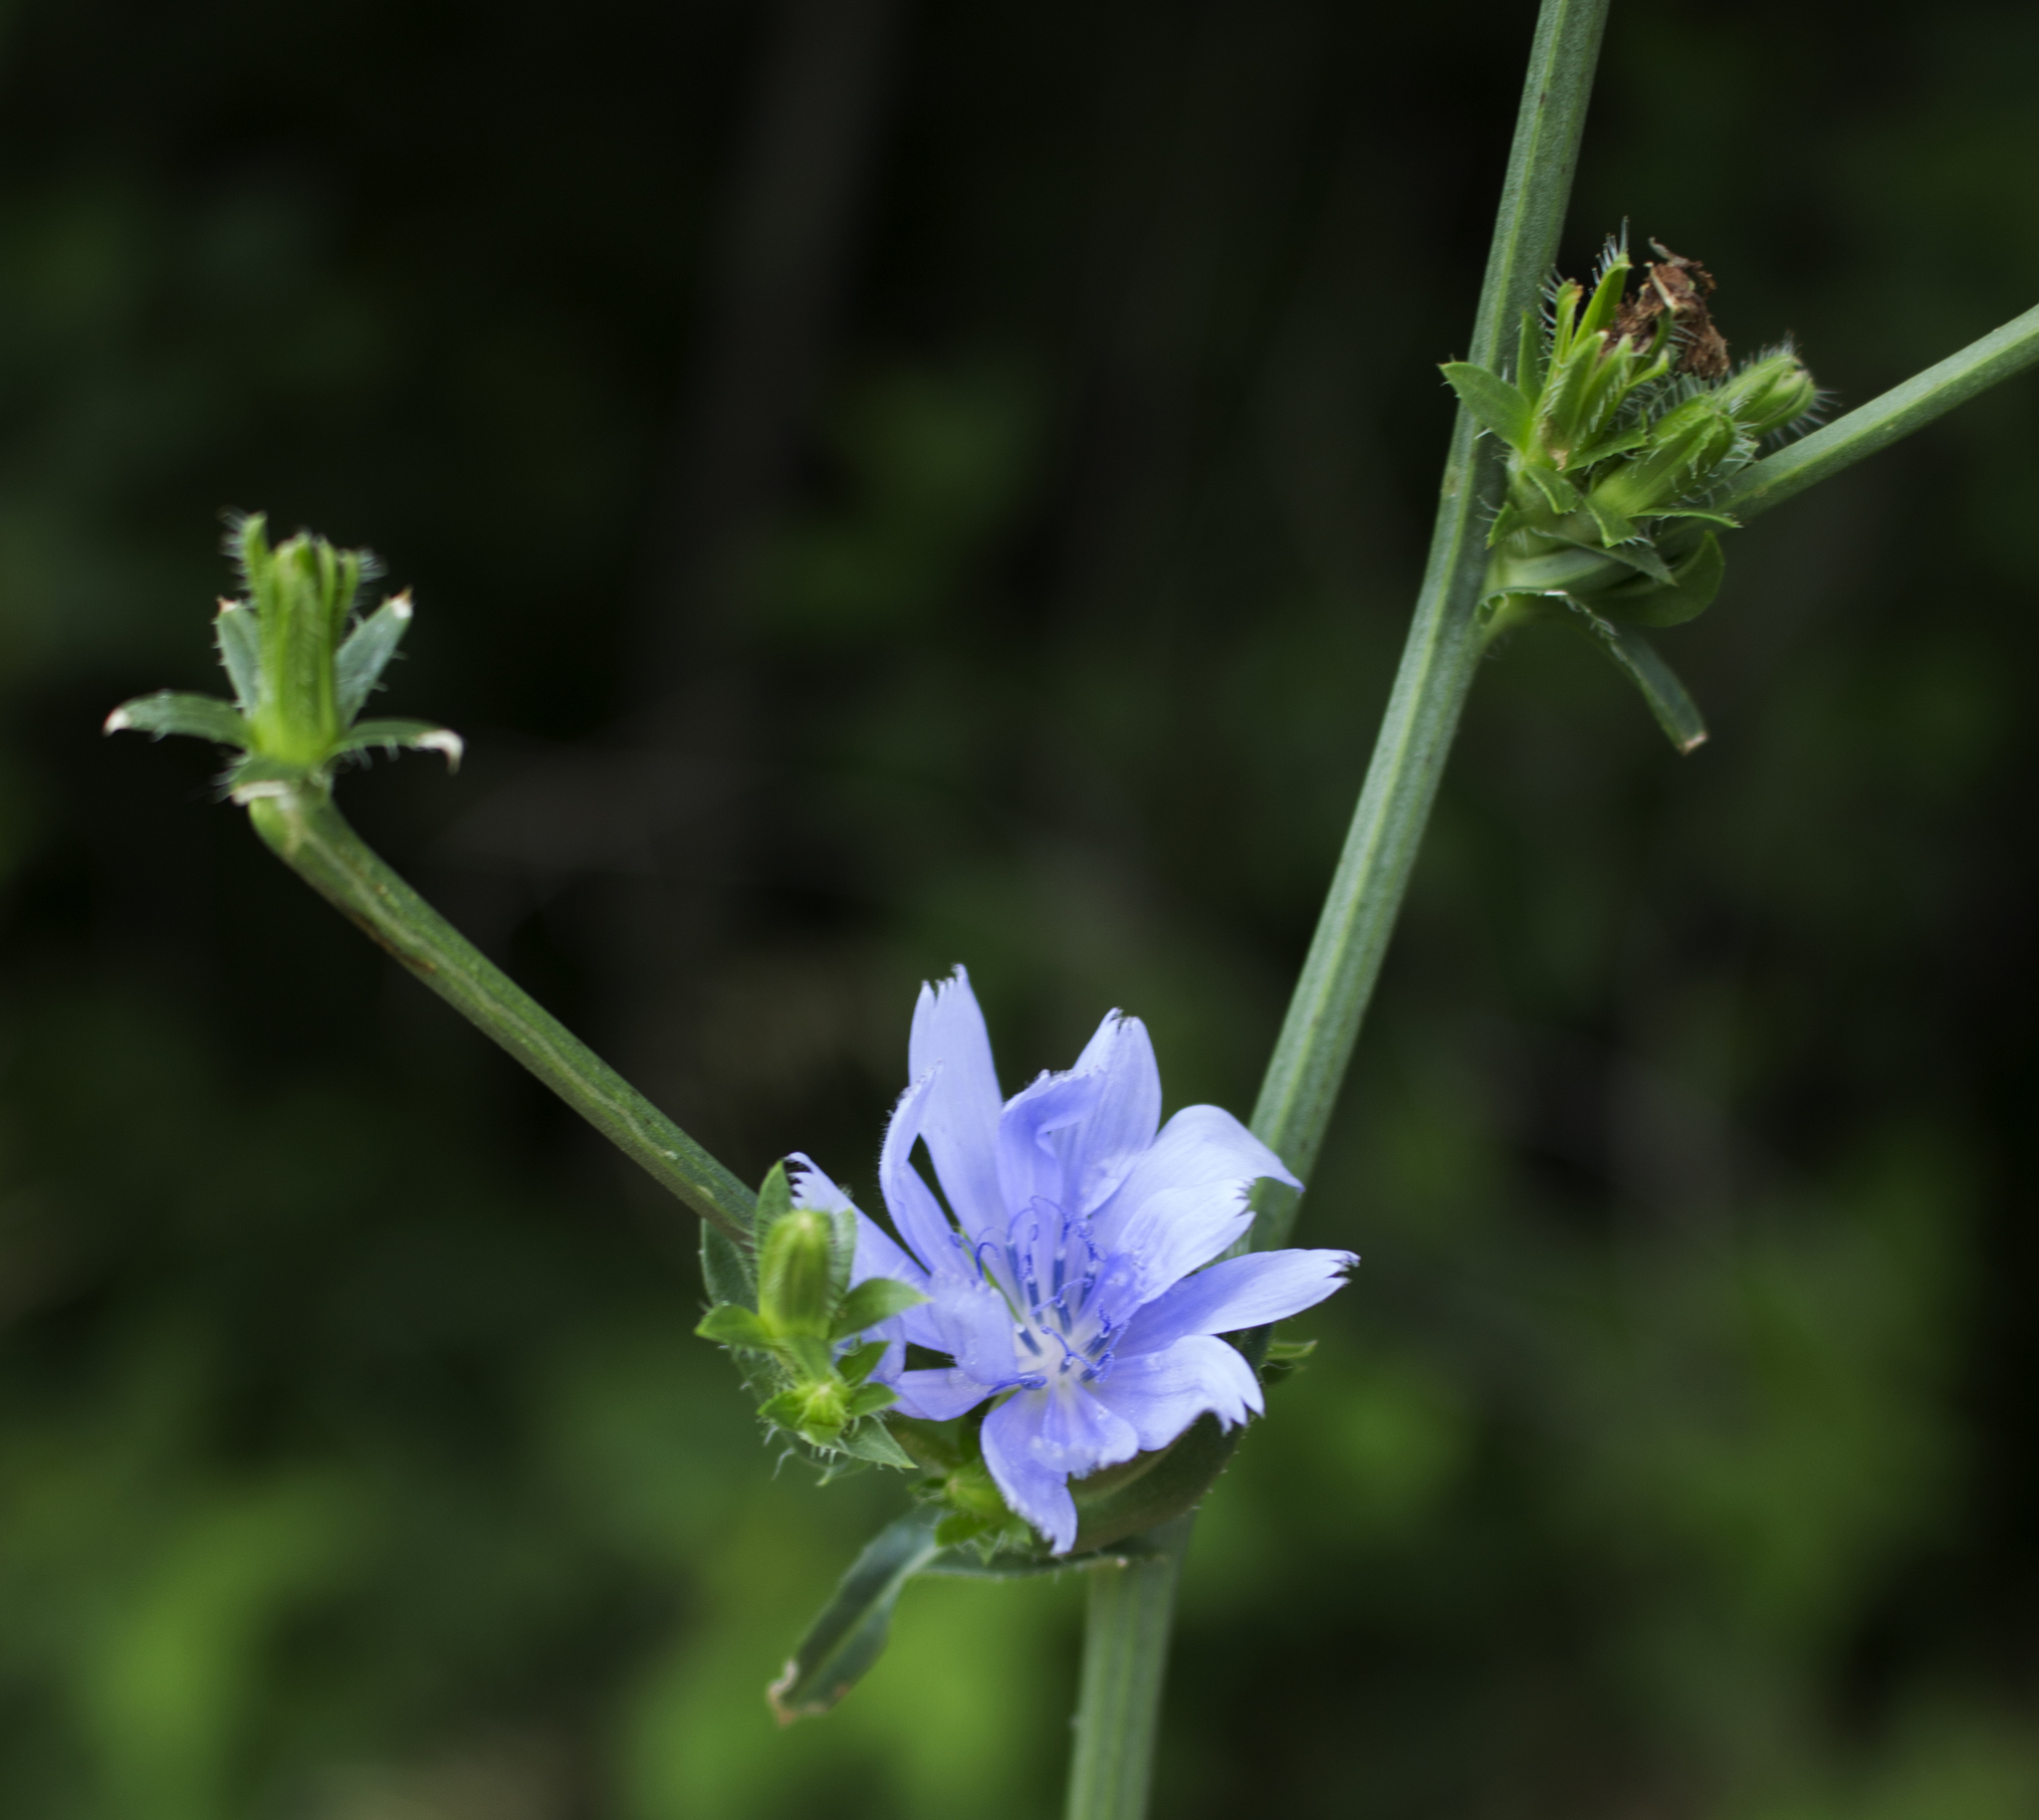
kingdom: Plantae
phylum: Tracheophyta
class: Magnoliopsida
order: Asterales
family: Asteraceae
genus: Cichorium
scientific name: Cichorium intybus
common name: Chicory
